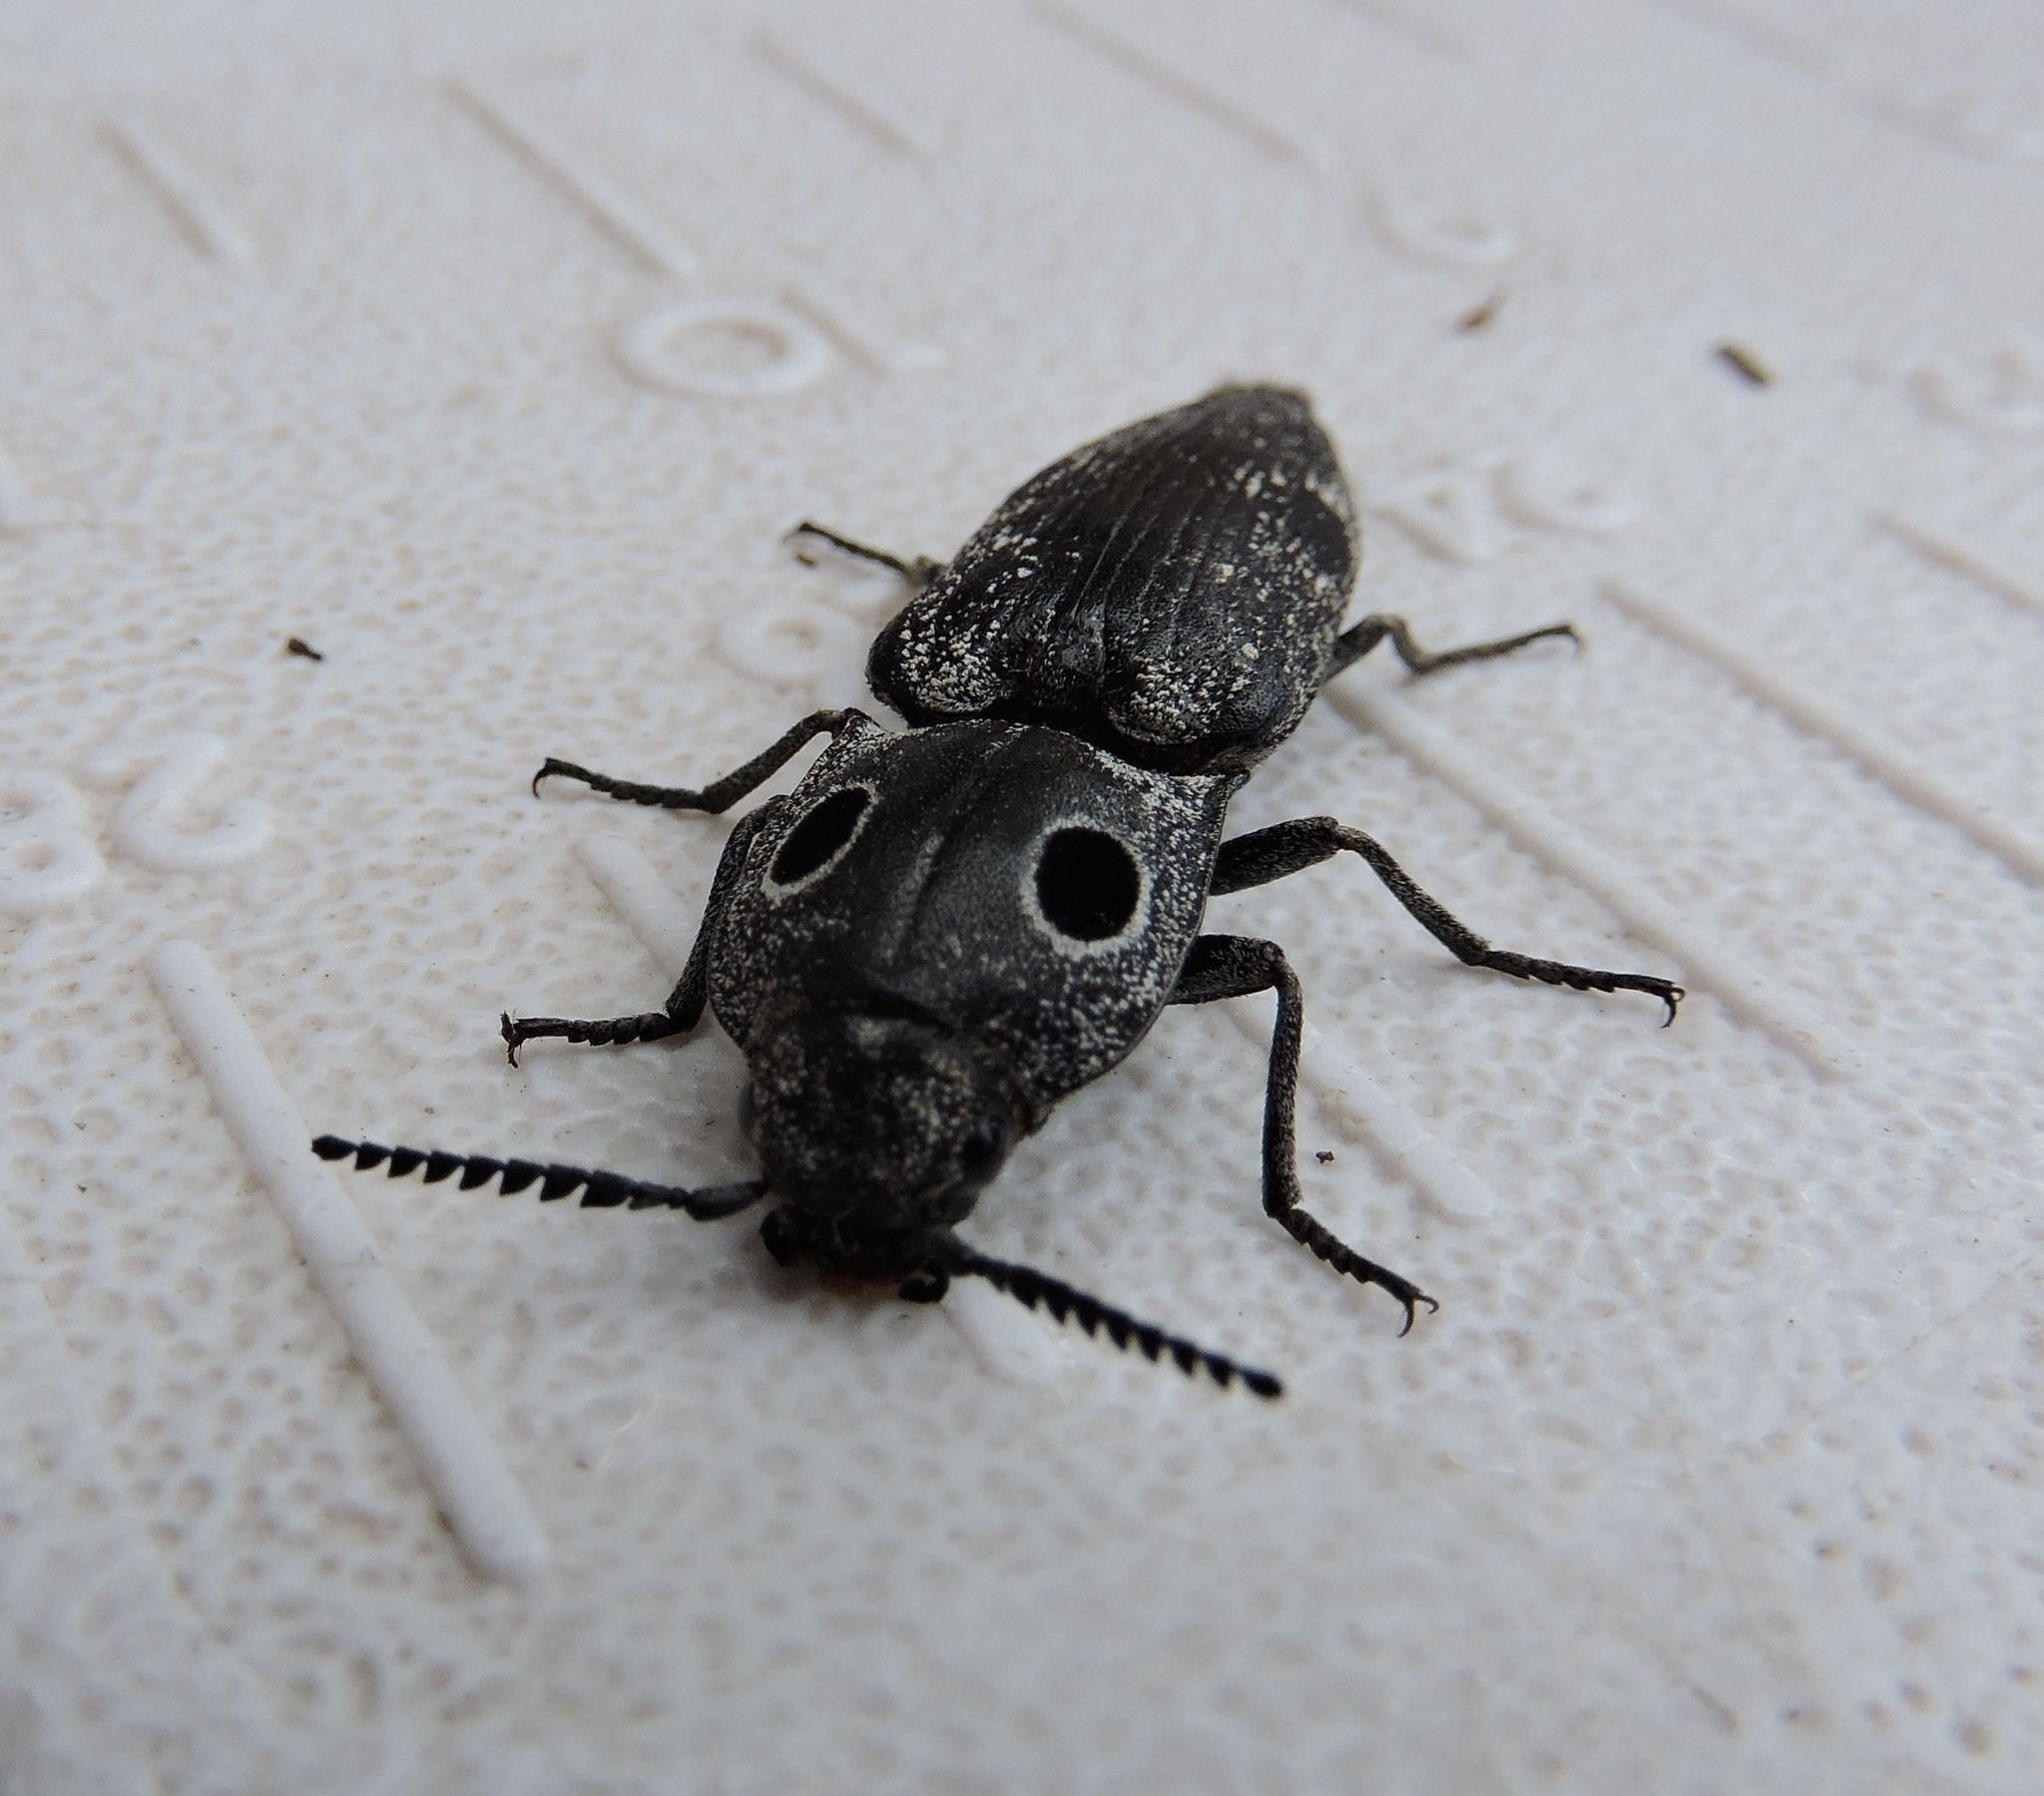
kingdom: Animalia
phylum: Arthropoda
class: Insecta
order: Coleoptera
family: Elateridae
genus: Alaus
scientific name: Alaus melanops
